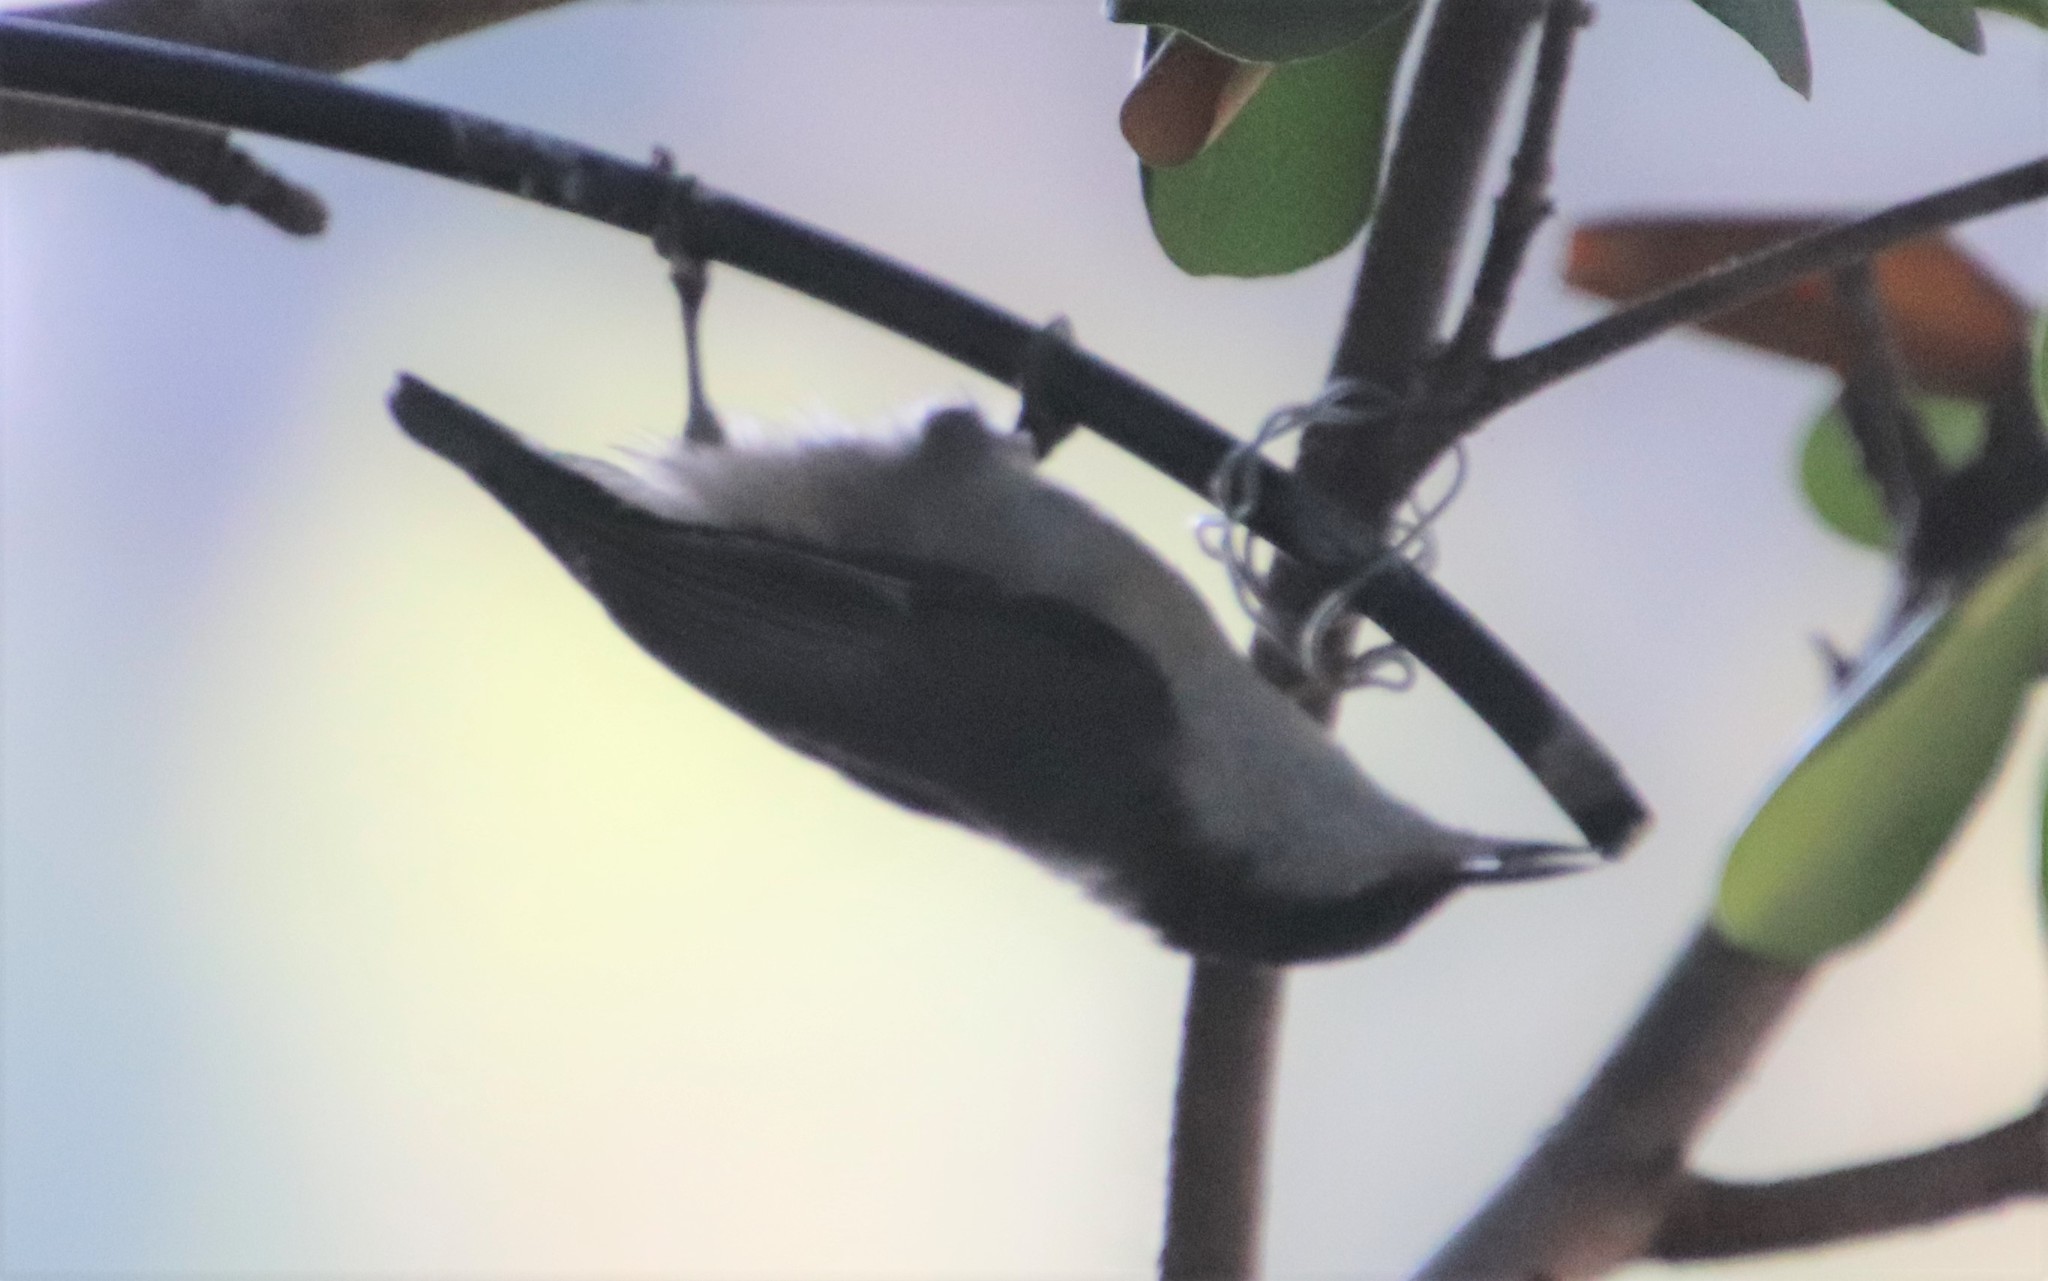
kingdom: Animalia
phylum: Chordata
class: Aves
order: Passeriformes
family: Sittidae
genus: Sitta
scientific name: Sitta pygmaea
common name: Pygmy nuthatch
